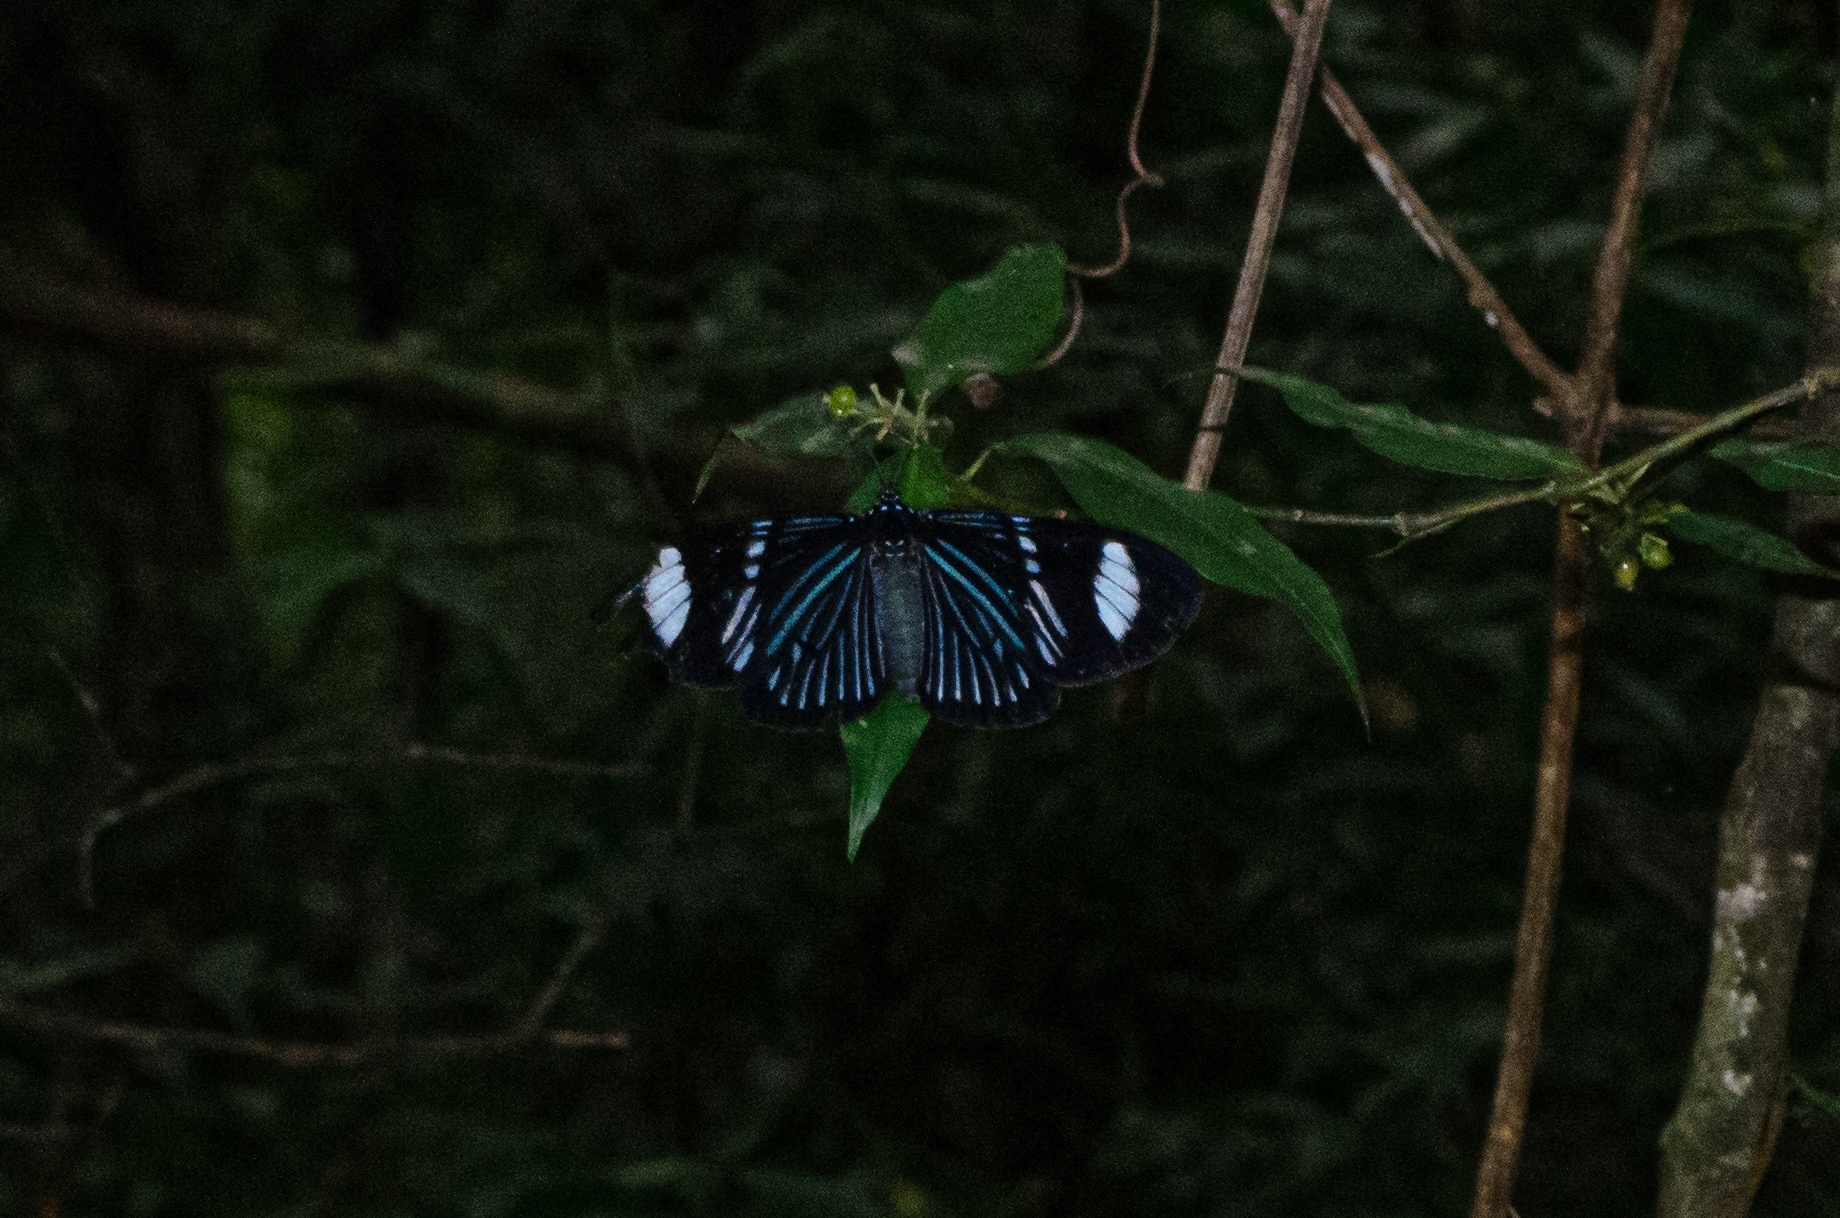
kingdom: Animalia
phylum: Arthropoda
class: Insecta
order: Lepidoptera
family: Erebidae
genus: Hypocrita
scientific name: Hypocrita
